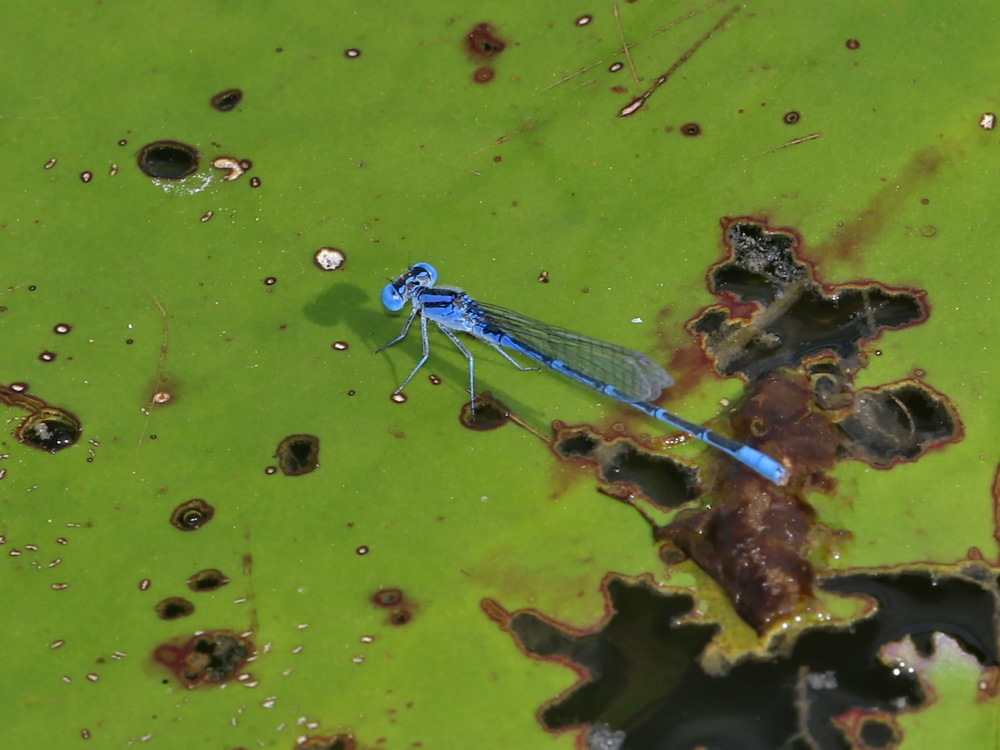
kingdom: Animalia
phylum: Arthropoda
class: Insecta
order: Odonata
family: Coenagrionidae
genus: Paracercion
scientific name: Paracercion melanotum
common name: Eastern lilysquatter
